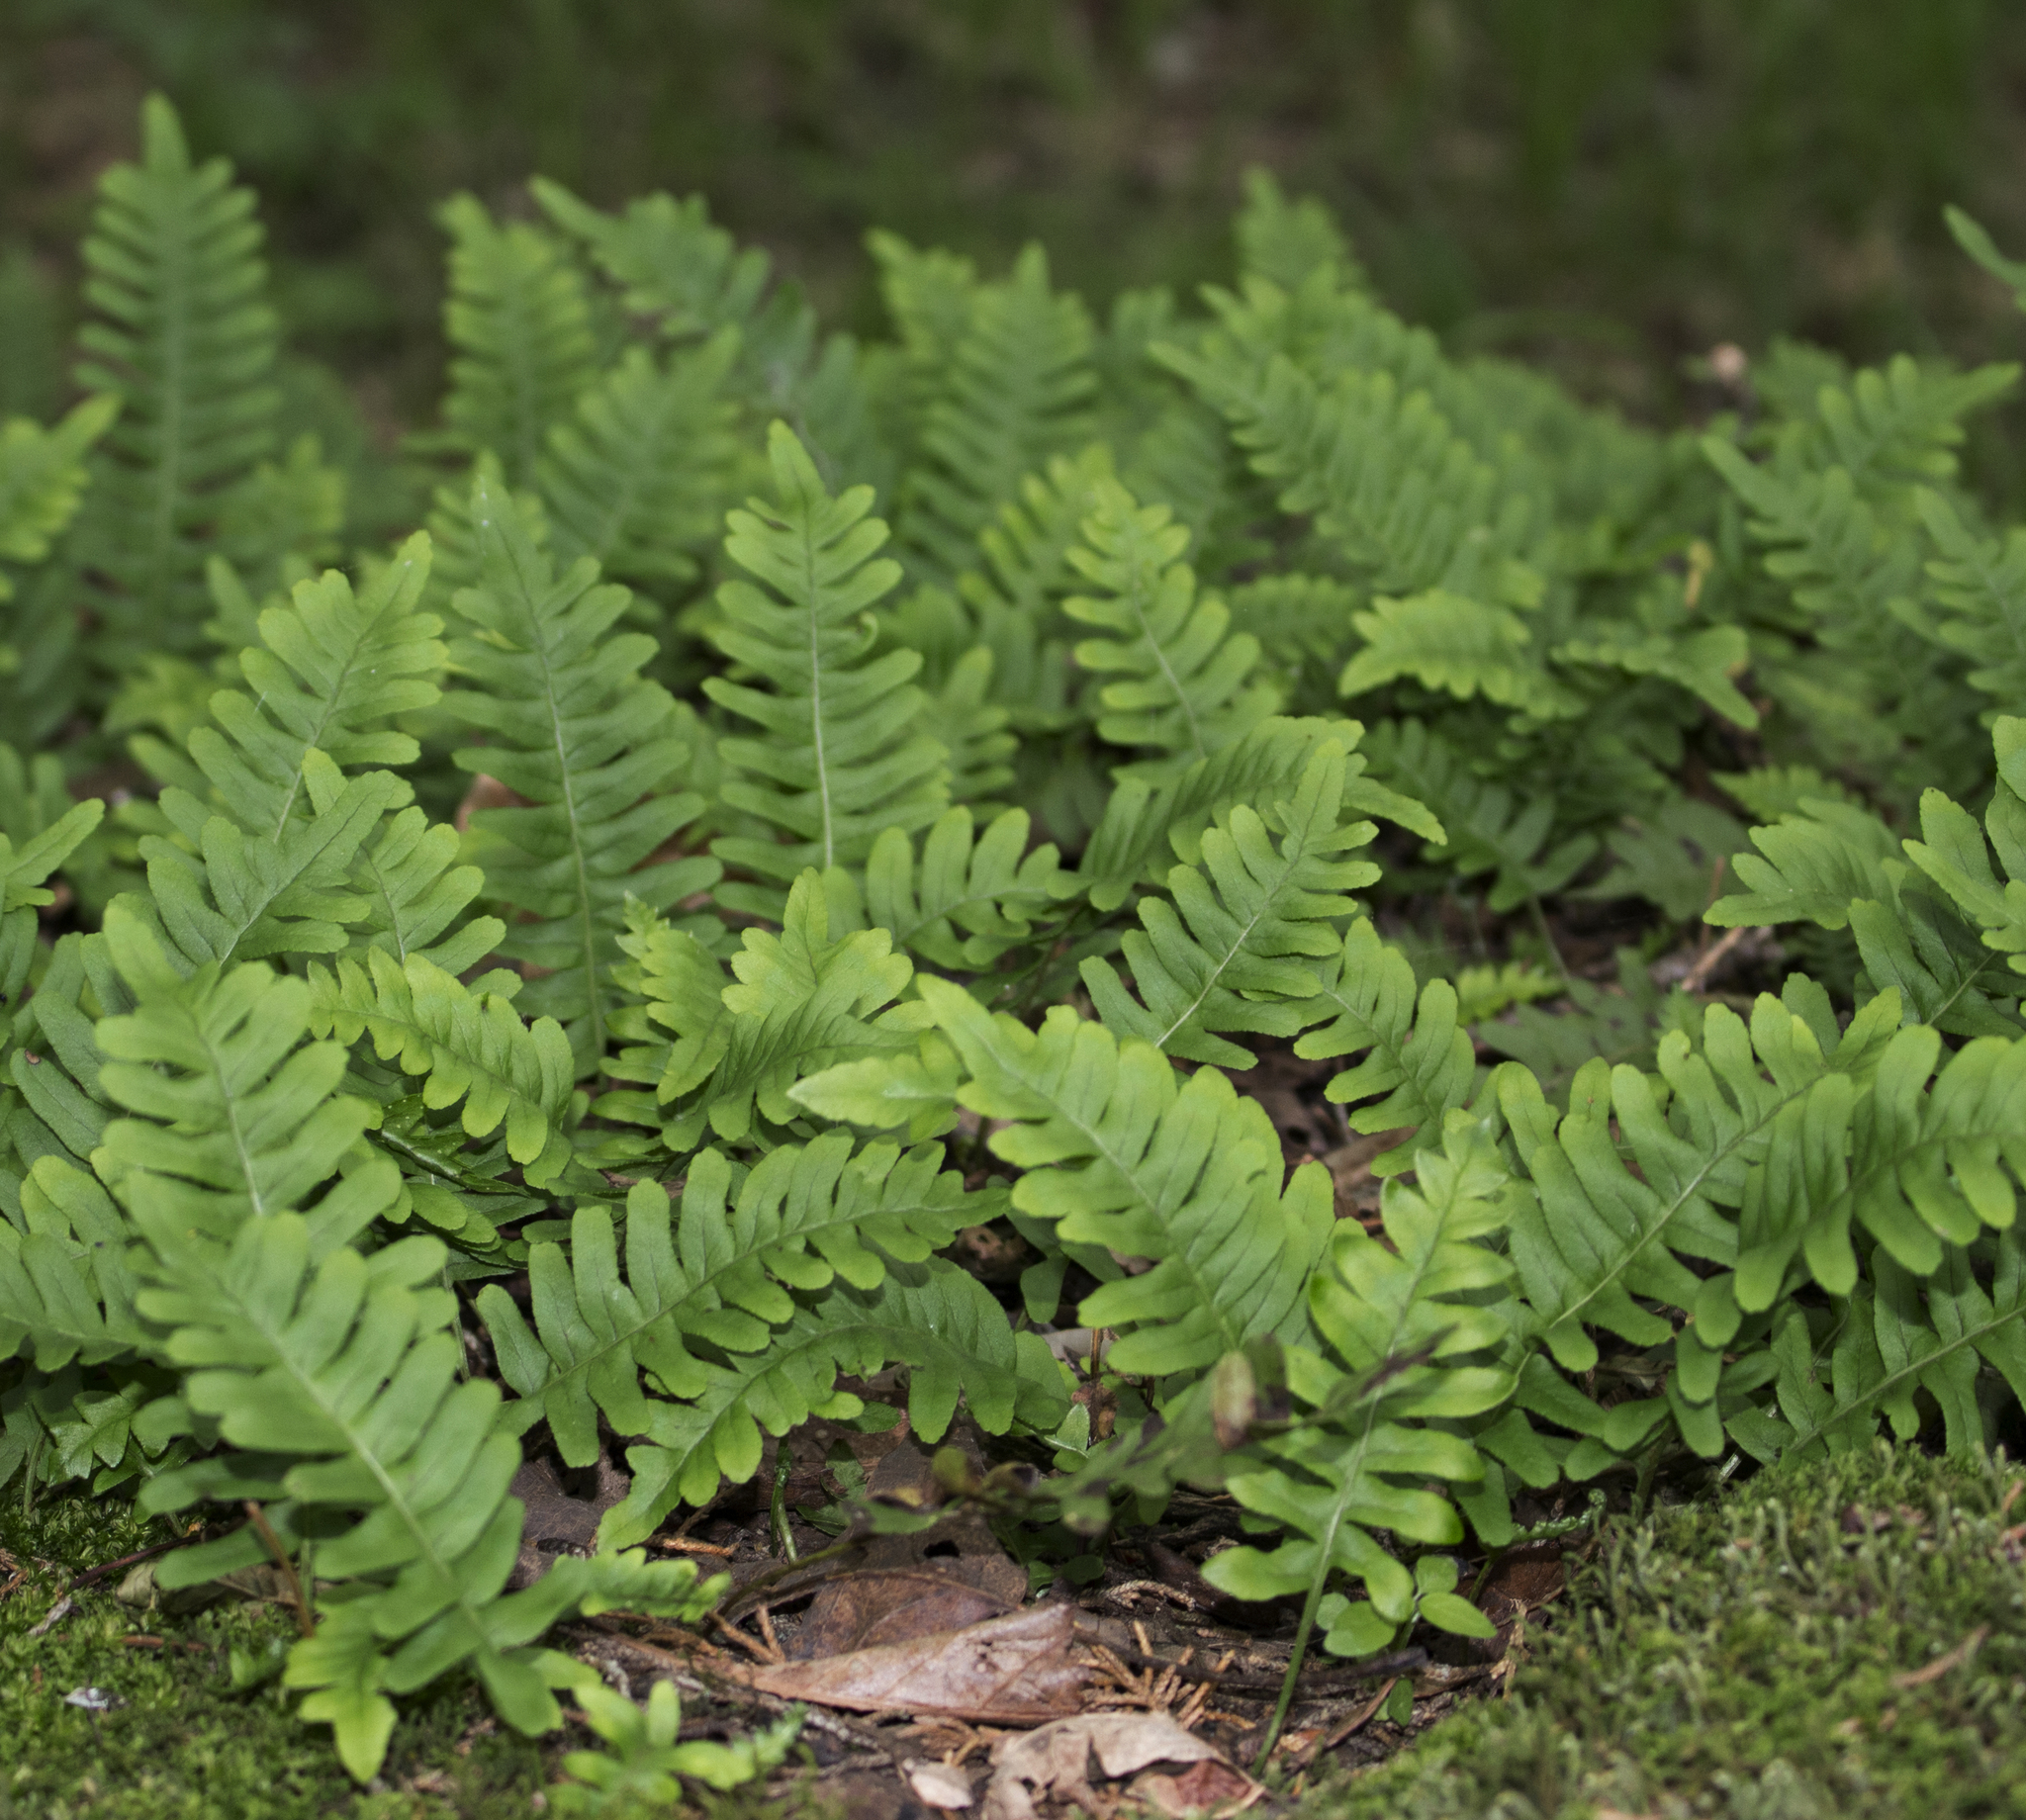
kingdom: Plantae
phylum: Tracheophyta
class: Polypodiopsida
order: Polypodiales
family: Polypodiaceae
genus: Polypodium
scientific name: Polypodium virginianum
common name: American wall fern
